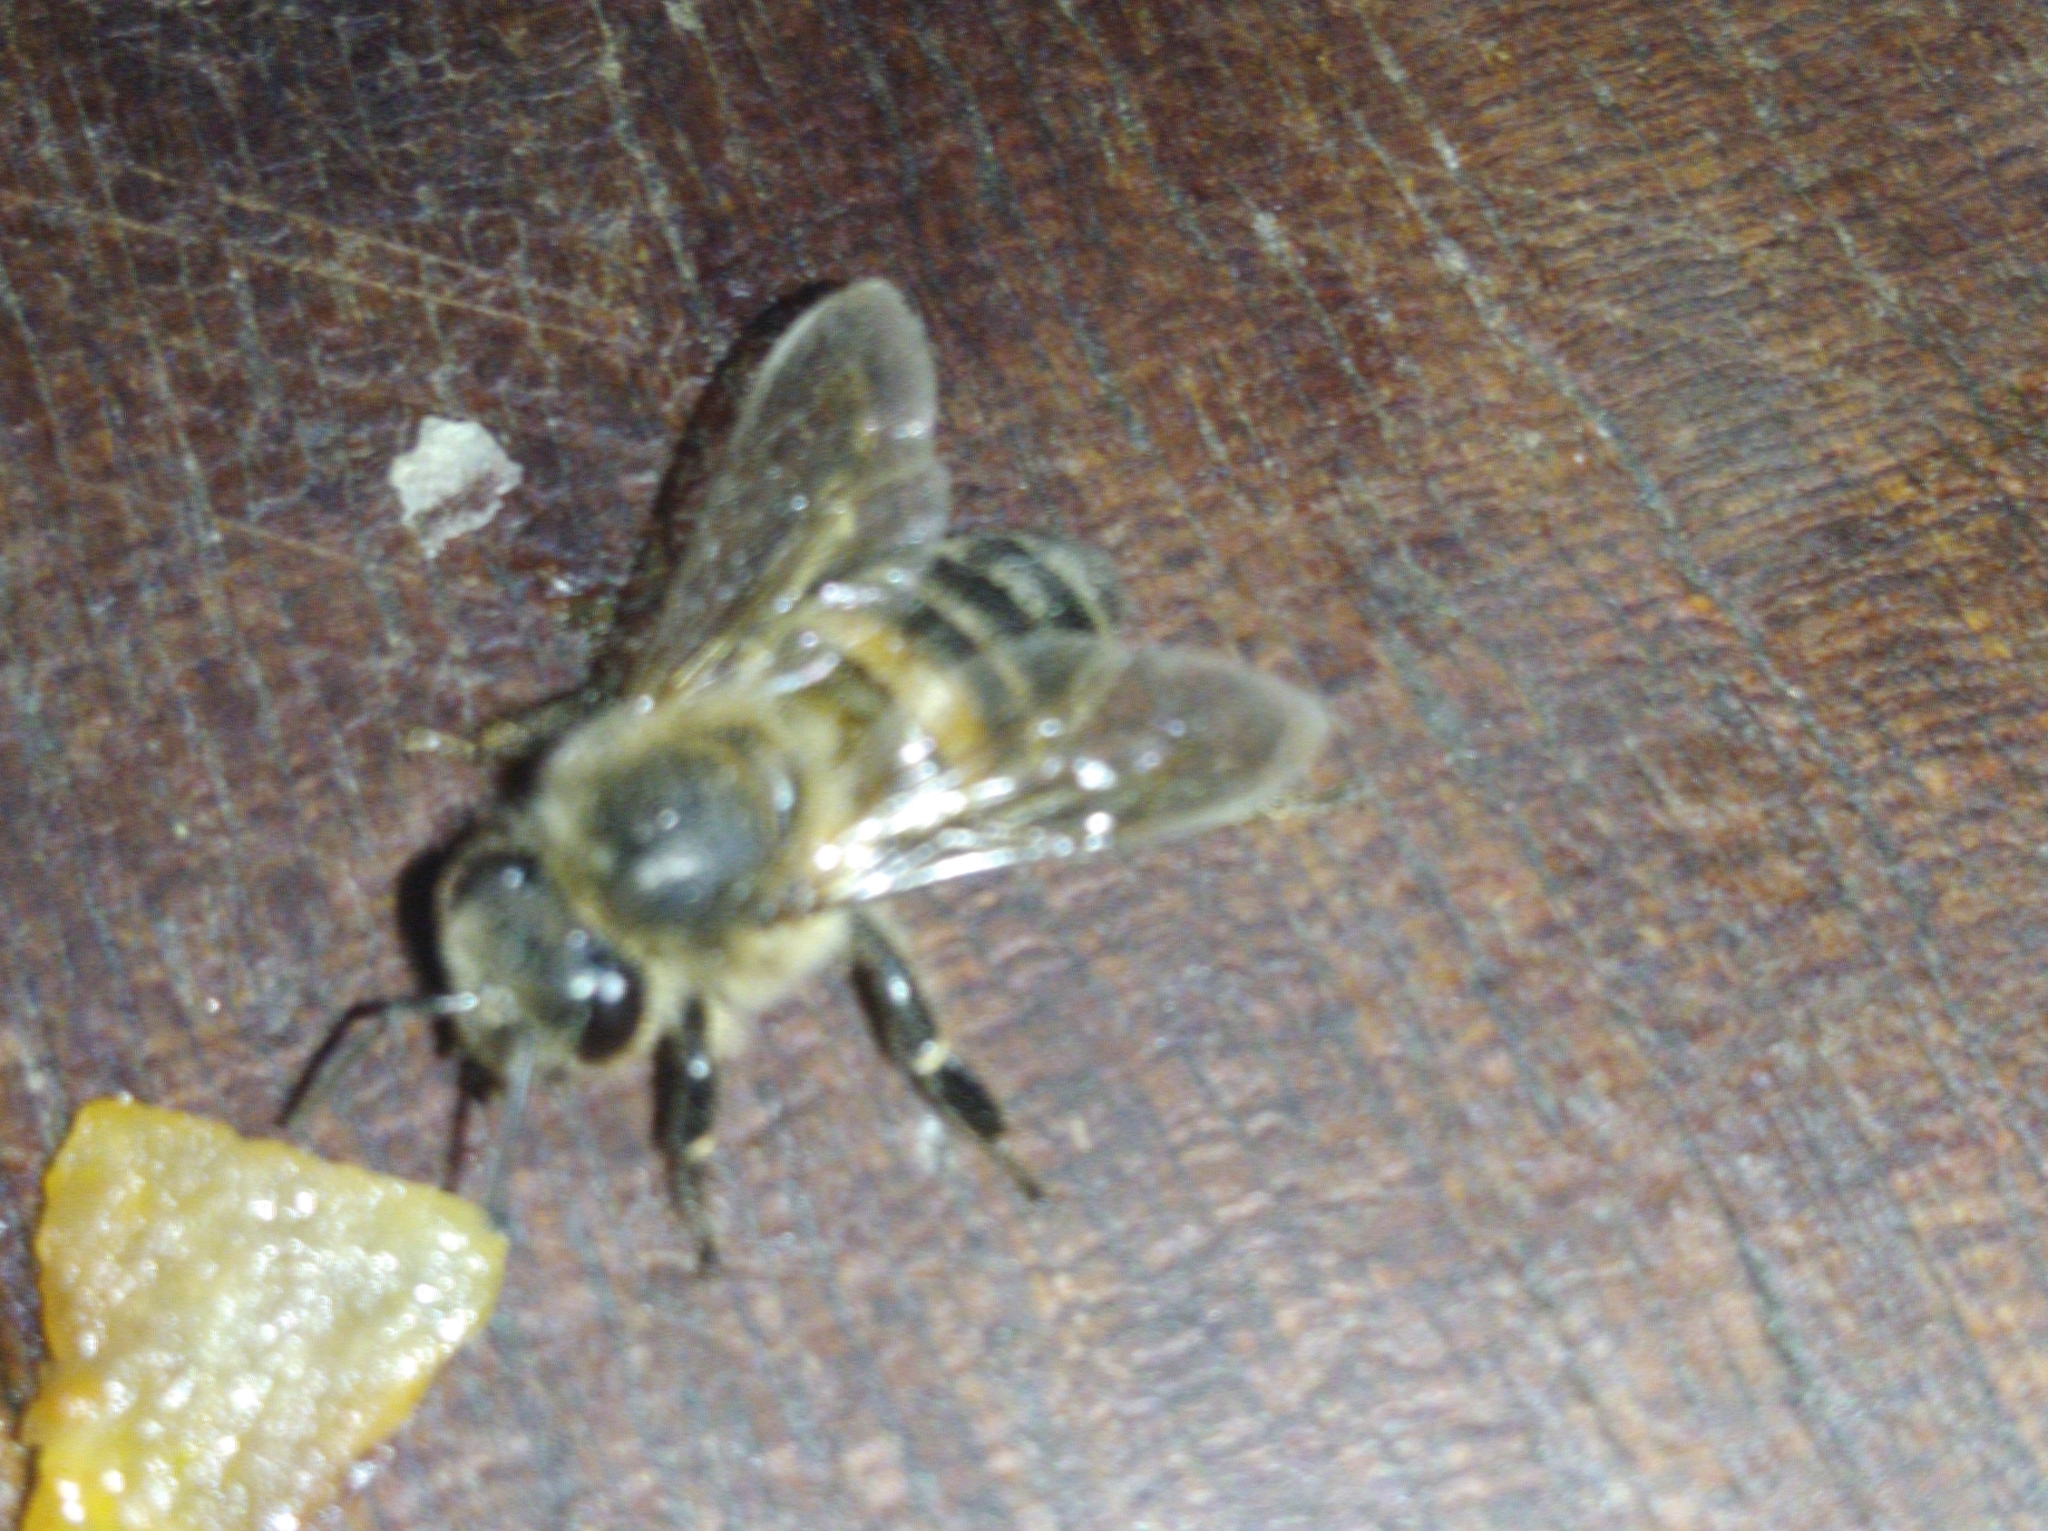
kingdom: Animalia
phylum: Arthropoda
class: Insecta
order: Hymenoptera
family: Apidae
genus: Apis
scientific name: Apis mellifera
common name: Honey bee
